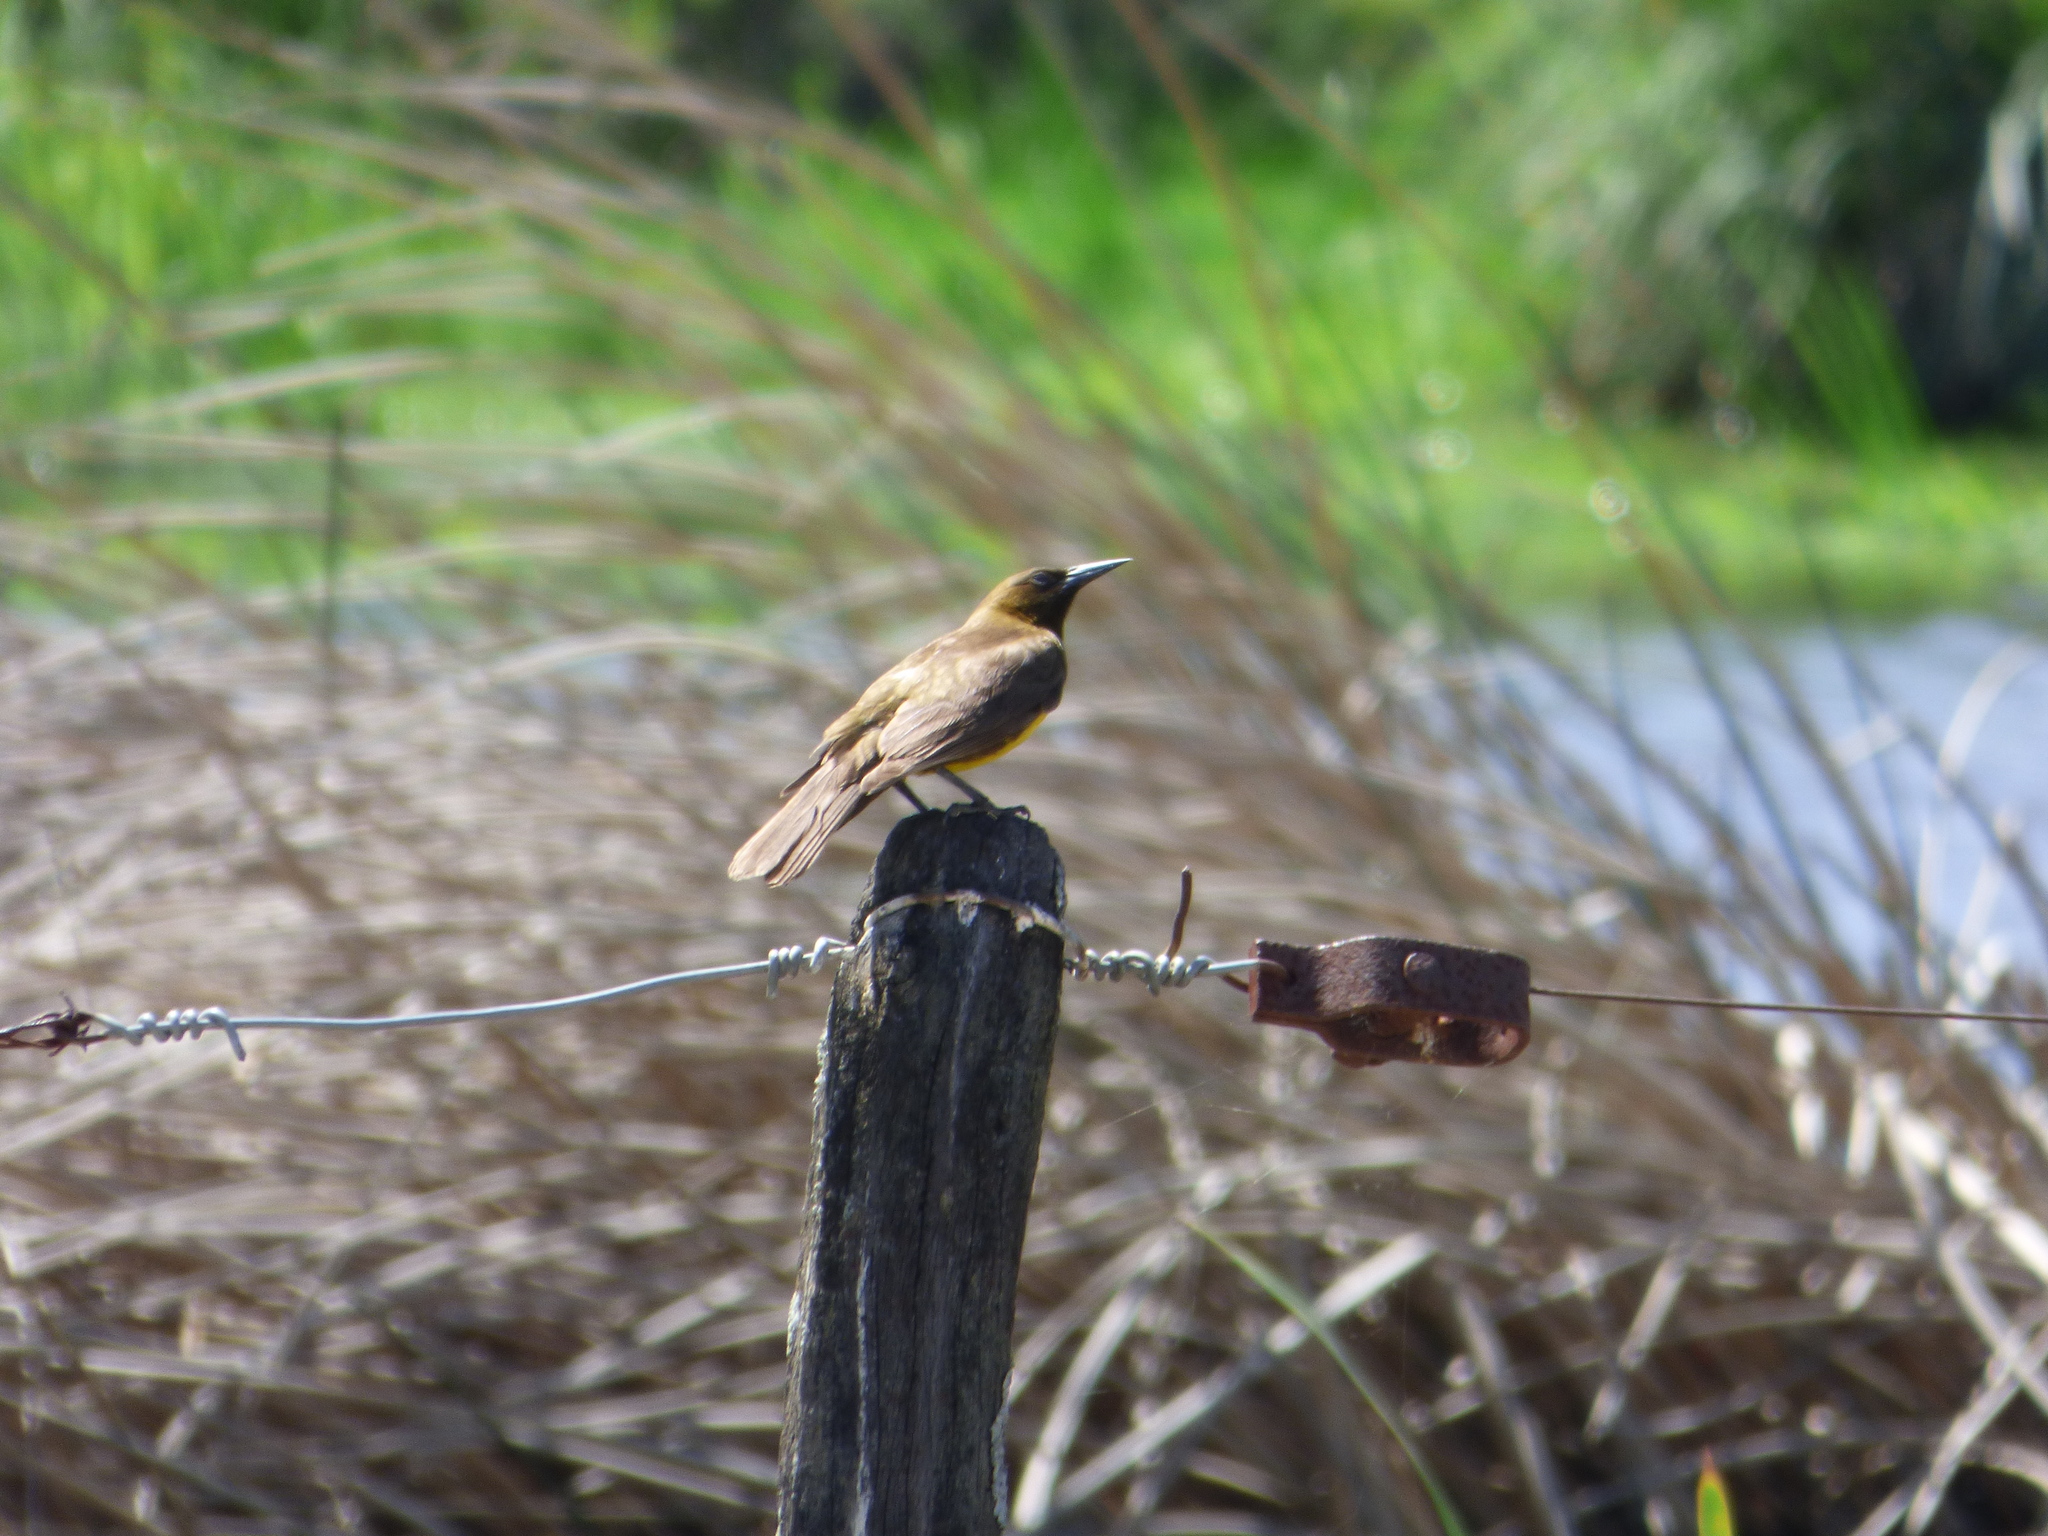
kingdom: Animalia
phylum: Chordata
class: Aves
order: Passeriformes
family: Icteridae
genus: Pseudoleistes
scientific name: Pseudoleistes virescens
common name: Brown-and-yellow marshbird
